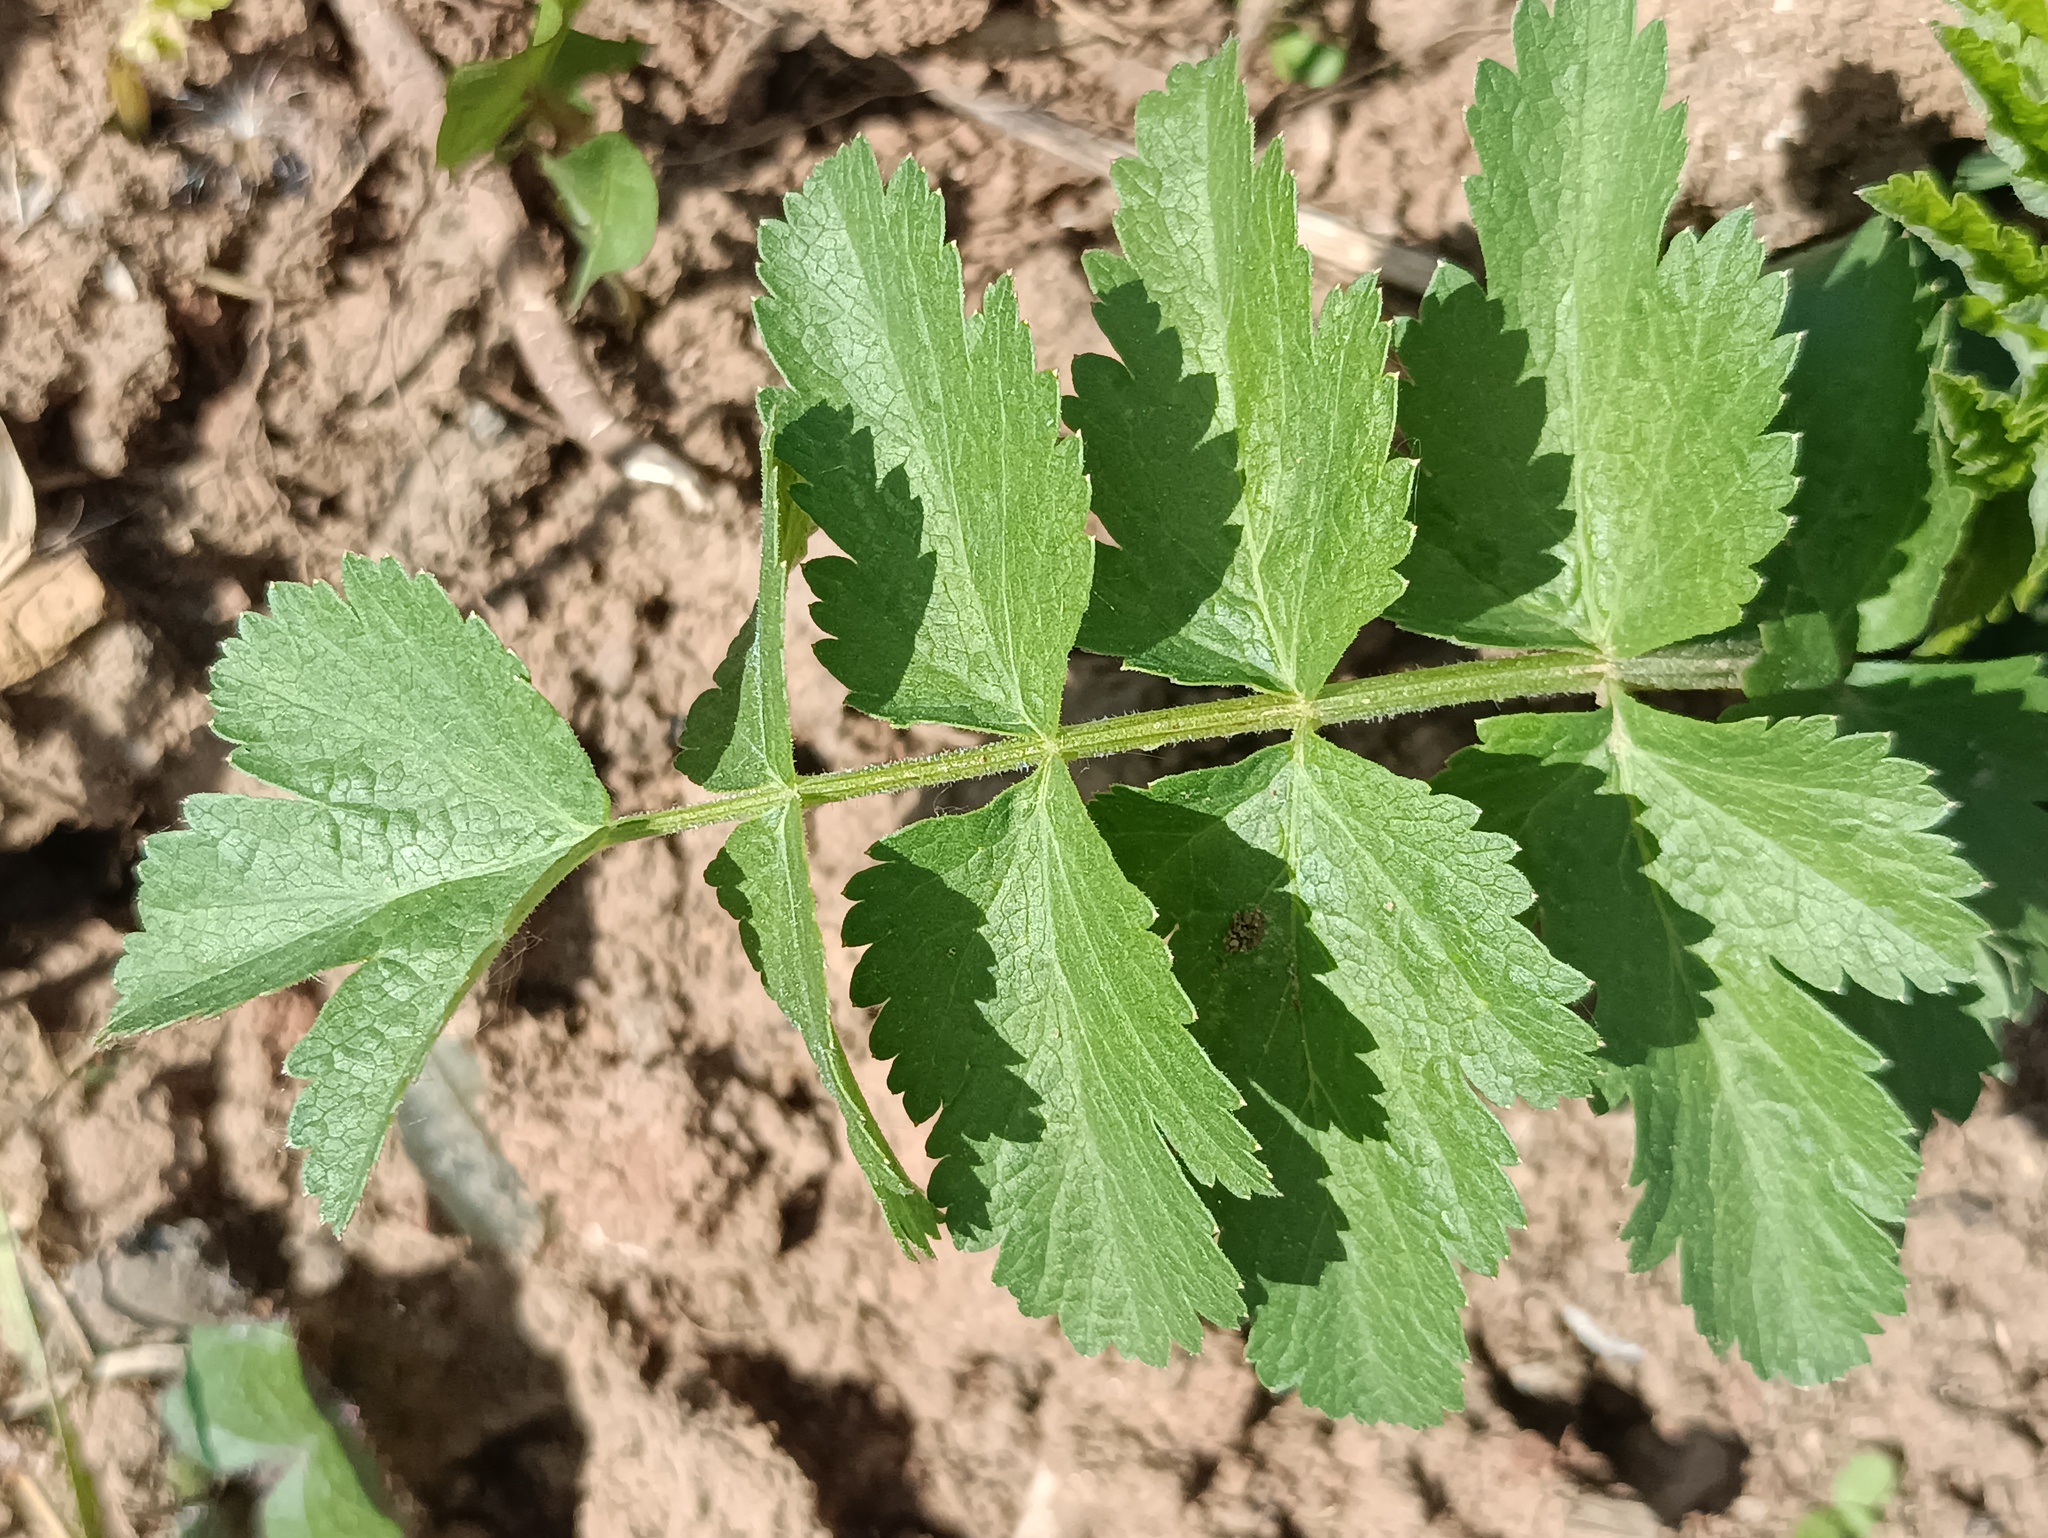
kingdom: Plantae
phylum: Tracheophyta
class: Magnoliopsida
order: Apiales
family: Apiaceae
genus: Pastinaca
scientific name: Pastinaca sativa
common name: Wild parsnip
